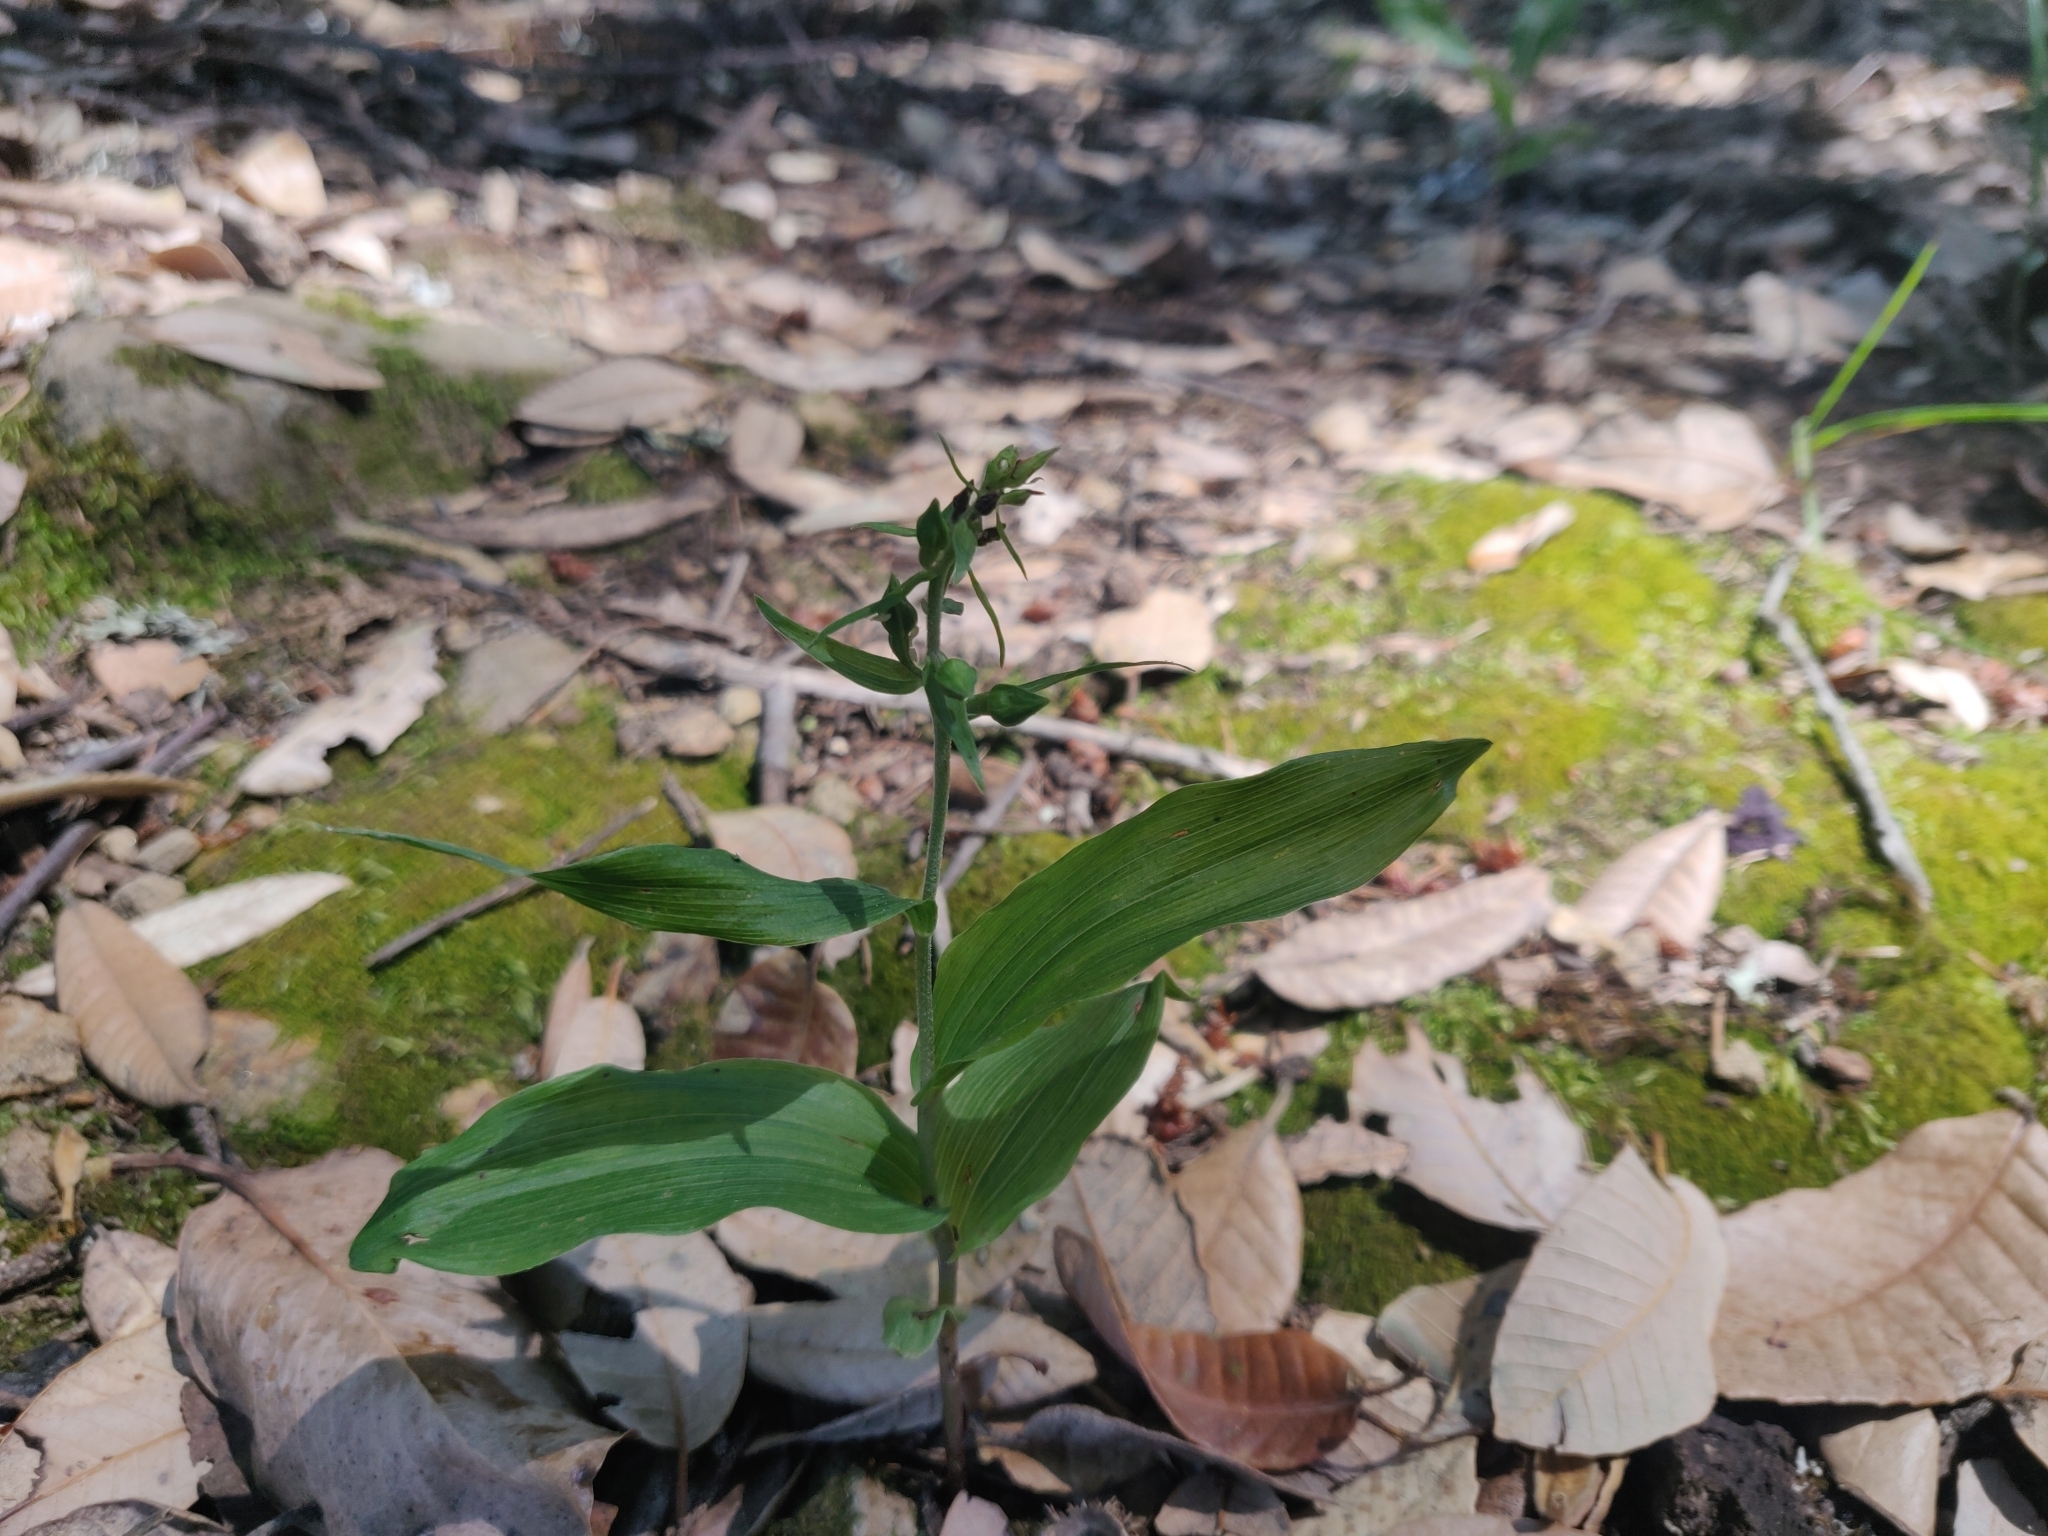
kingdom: Plantae
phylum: Tracheophyta
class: Liliopsida
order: Asparagales
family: Orchidaceae
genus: Epipactis
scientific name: Epipactis helleborine
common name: Broad-leaved helleborine
